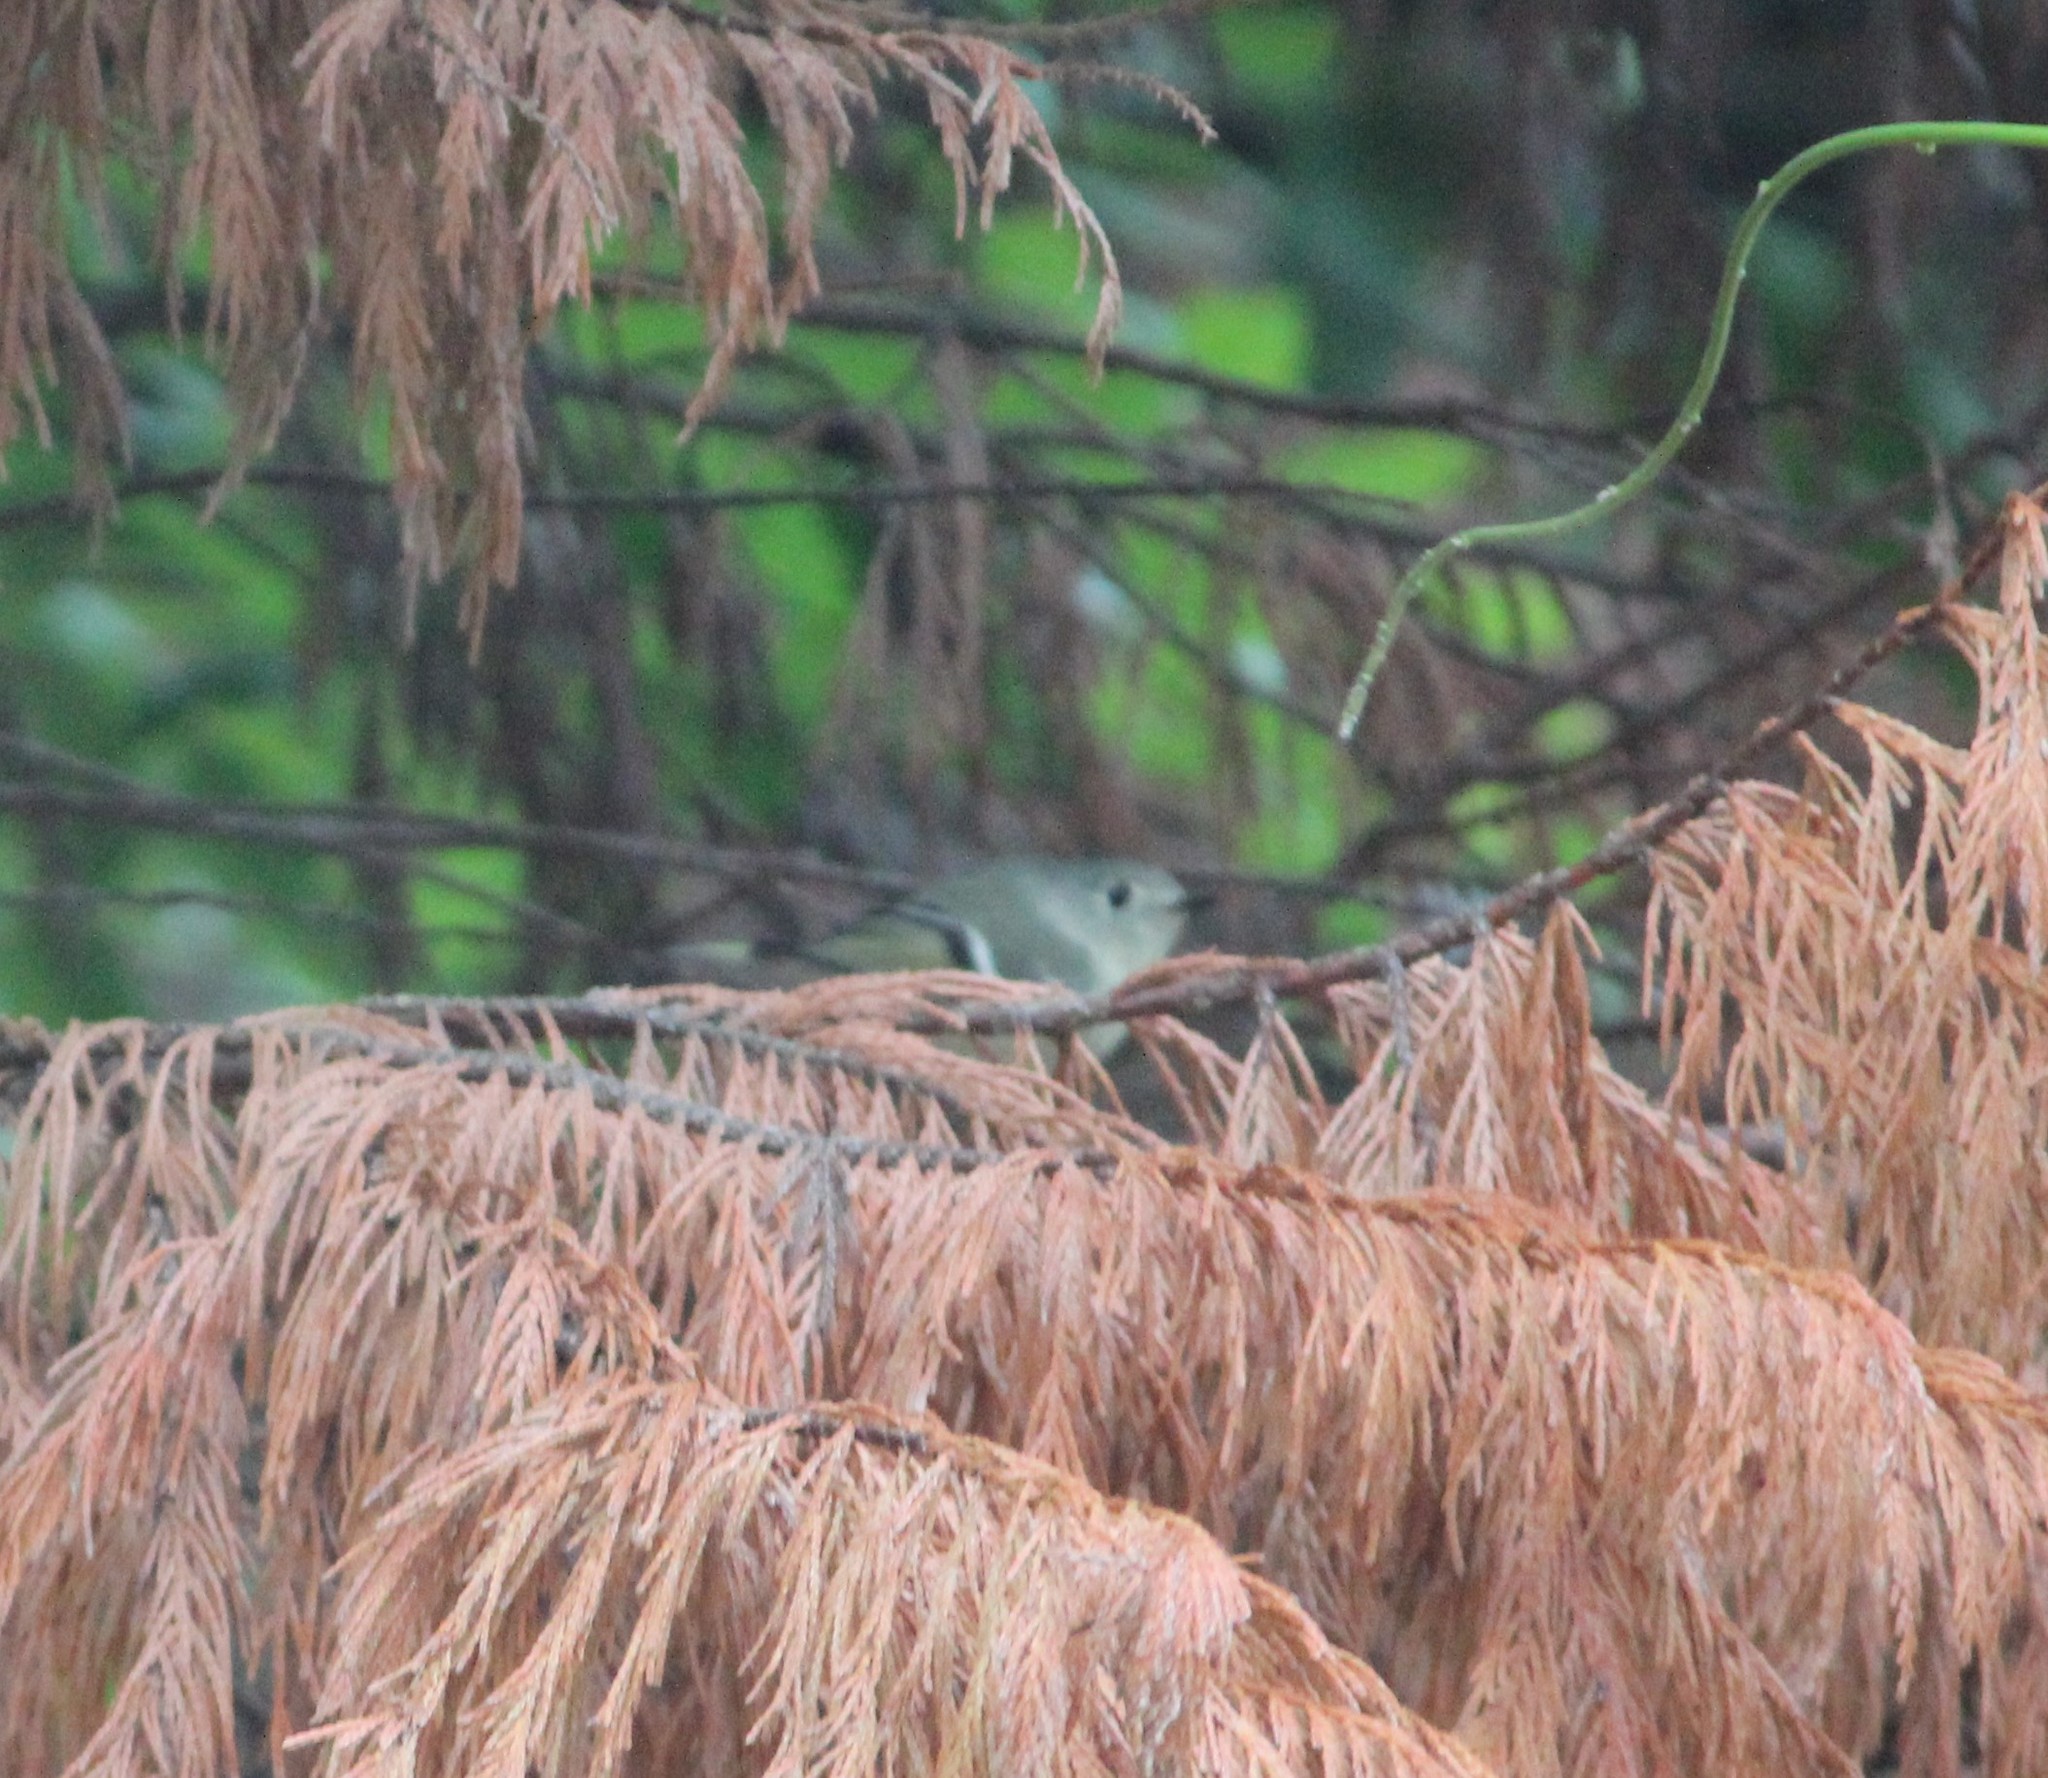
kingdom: Animalia
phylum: Chordata
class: Aves
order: Passeriformes
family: Regulidae
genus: Regulus
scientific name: Regulus calendula
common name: Ruby-crowned kinglet
